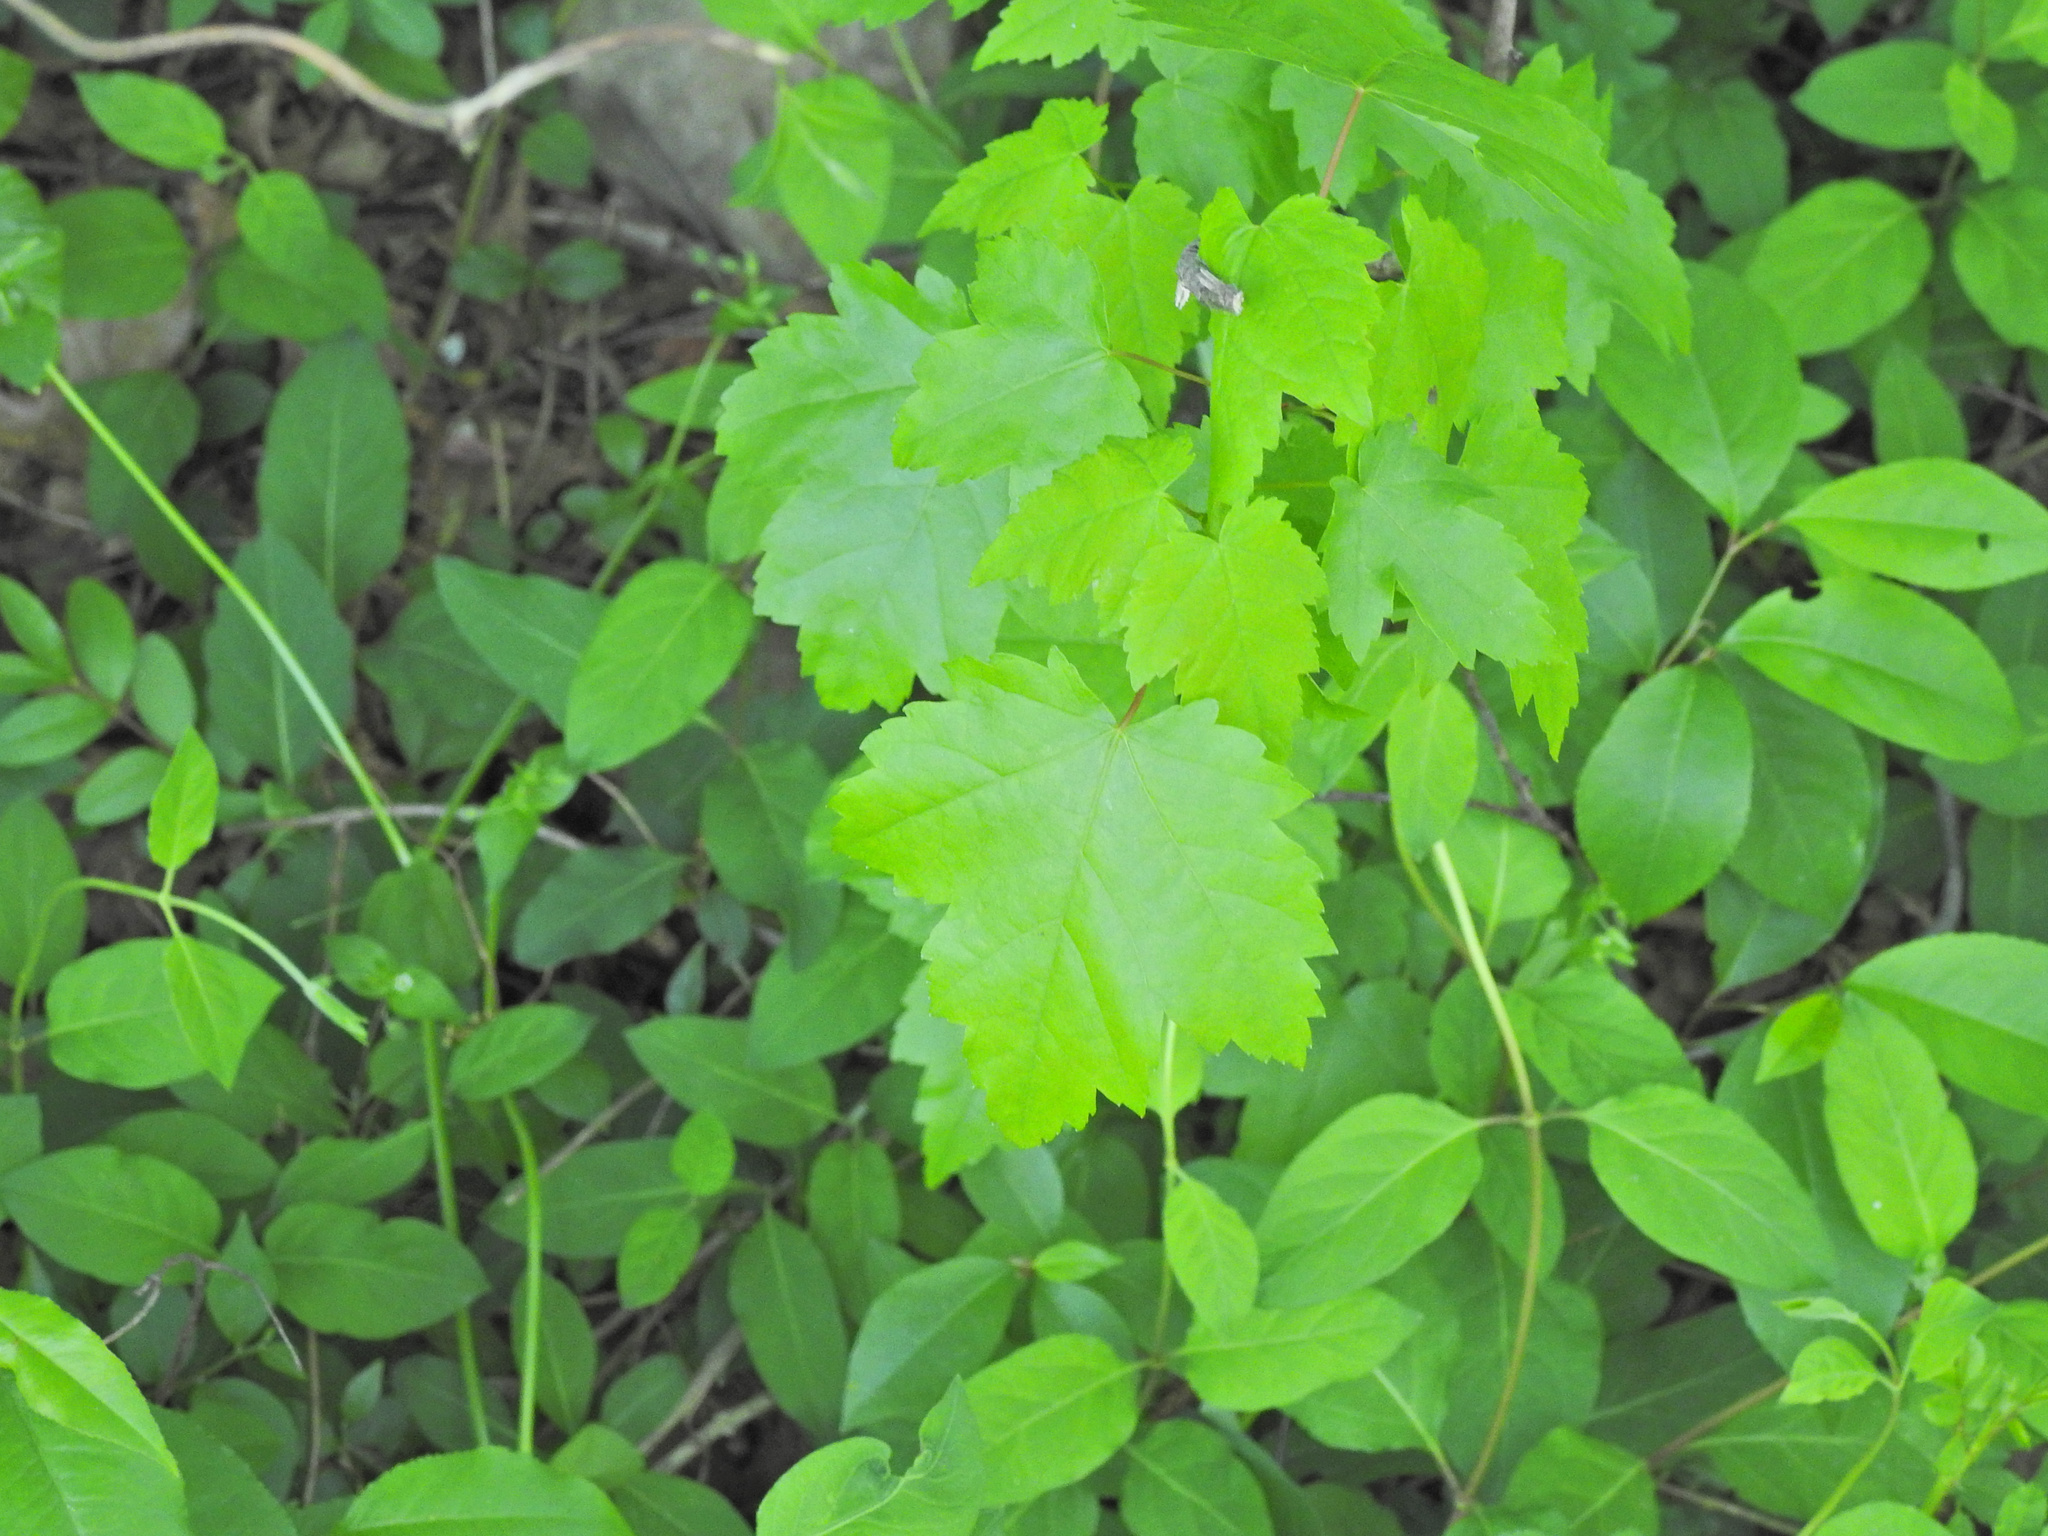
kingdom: Plantae
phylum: Tracheophyta
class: Magnoliopsida
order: Sapindales
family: Sapindaceae
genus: Acer
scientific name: Acer rubrum
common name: Red maple
